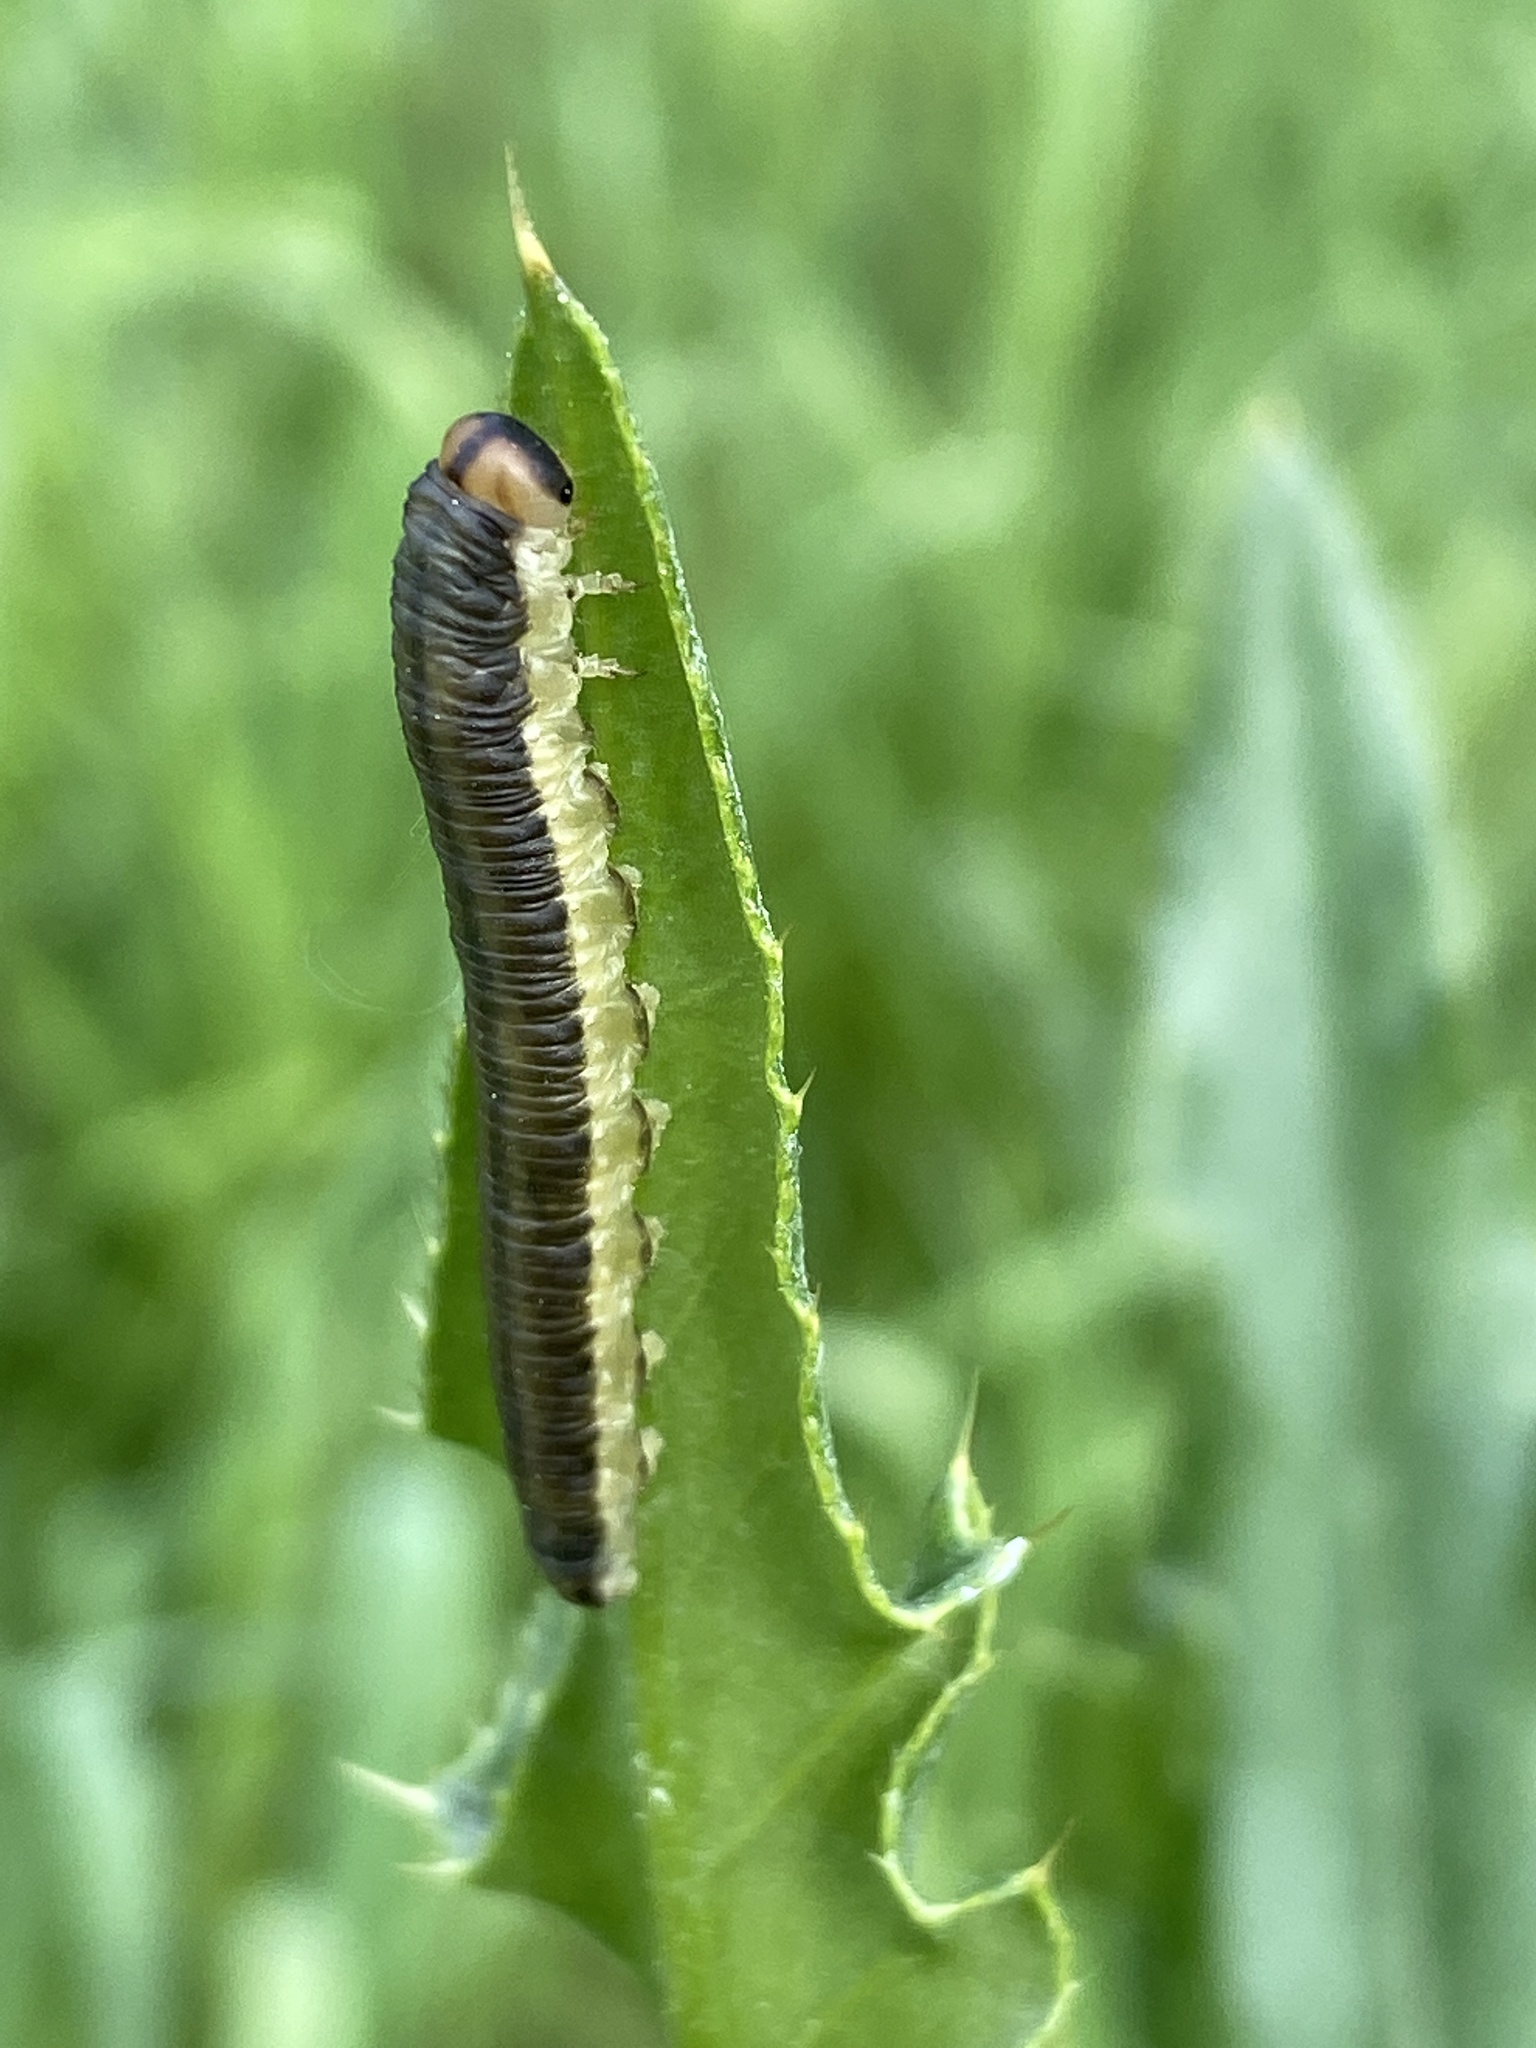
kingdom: Animalia
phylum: Arthropoda
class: Insecta
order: Hymenoptera
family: Tenthredinidae
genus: Dolerus
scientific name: Dolerus haematodes
